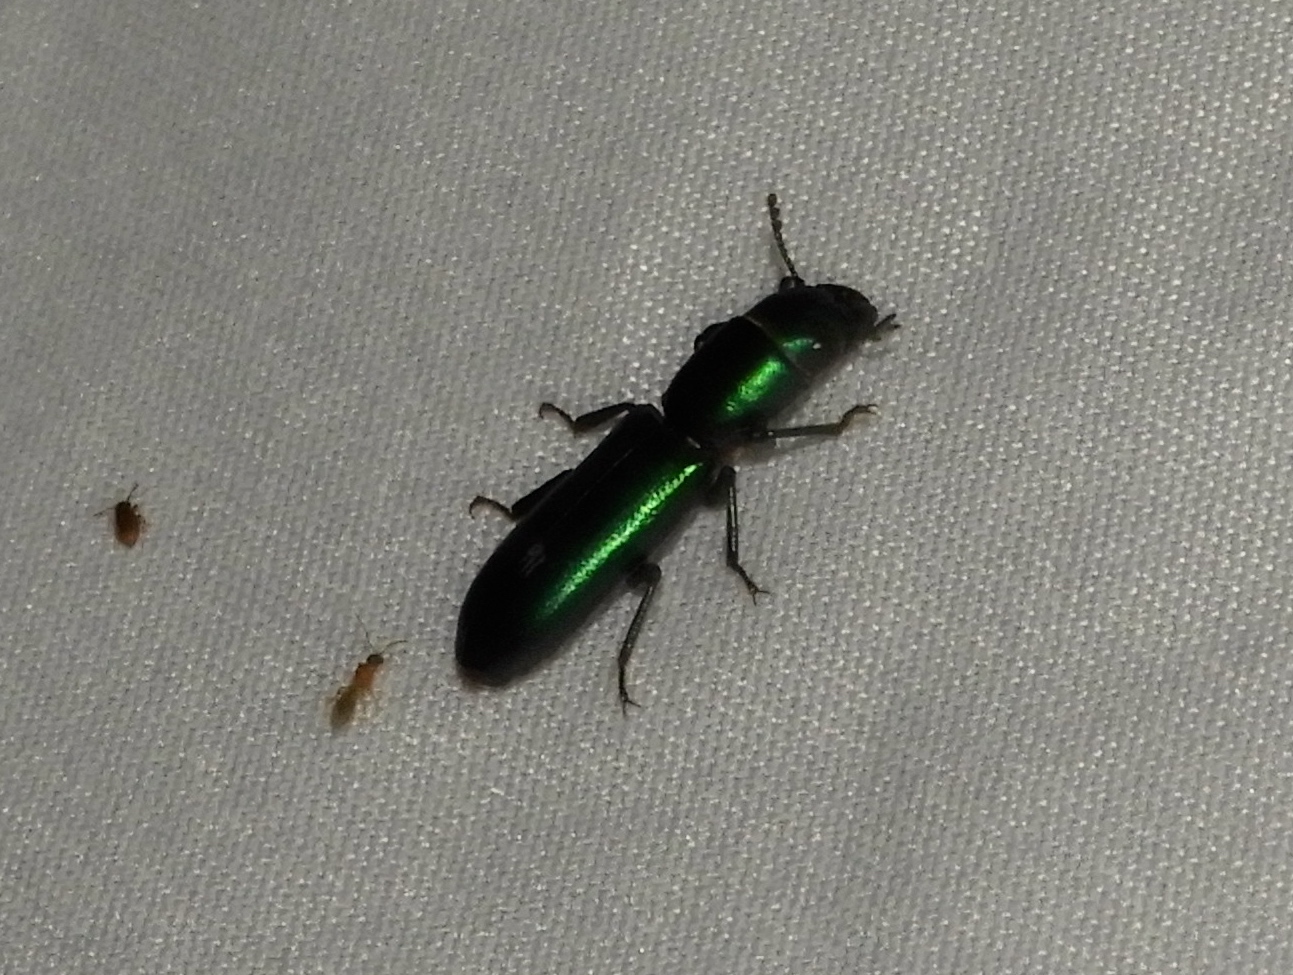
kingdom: Animalia
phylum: Arthropoda
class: Insecta
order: Coleoptera
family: Trogossitidae
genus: Temnoscheila
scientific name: Temnoscheila
